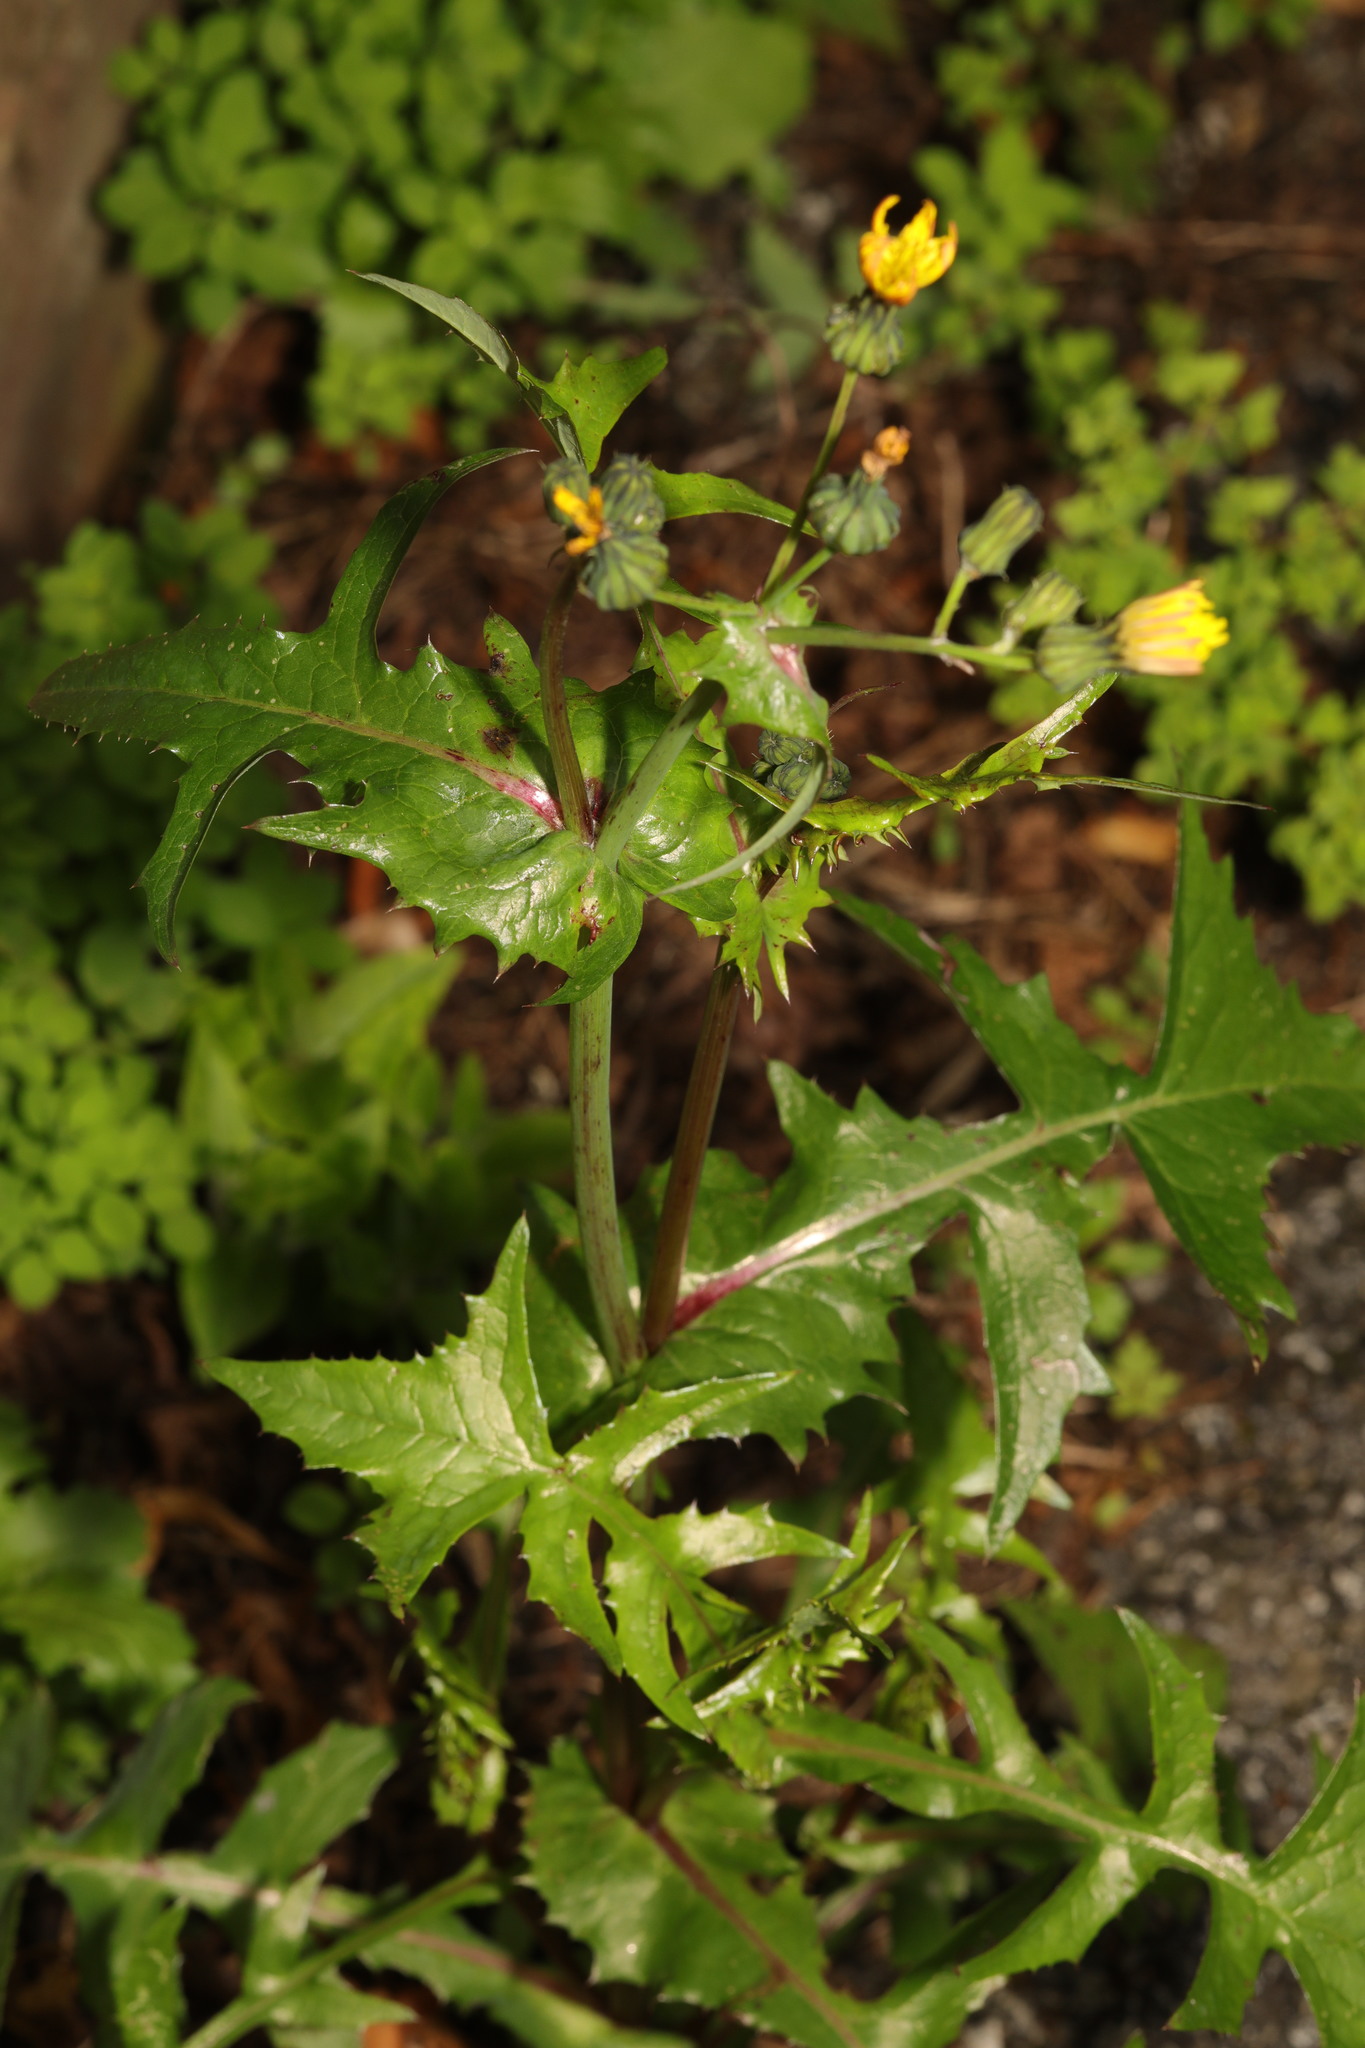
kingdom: Plantae
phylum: Tracheophyta
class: Magnoliopsida
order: Asterales
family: Asteraceae
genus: Sonchus
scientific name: Sonchus oleraceus
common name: Common sowthistle
